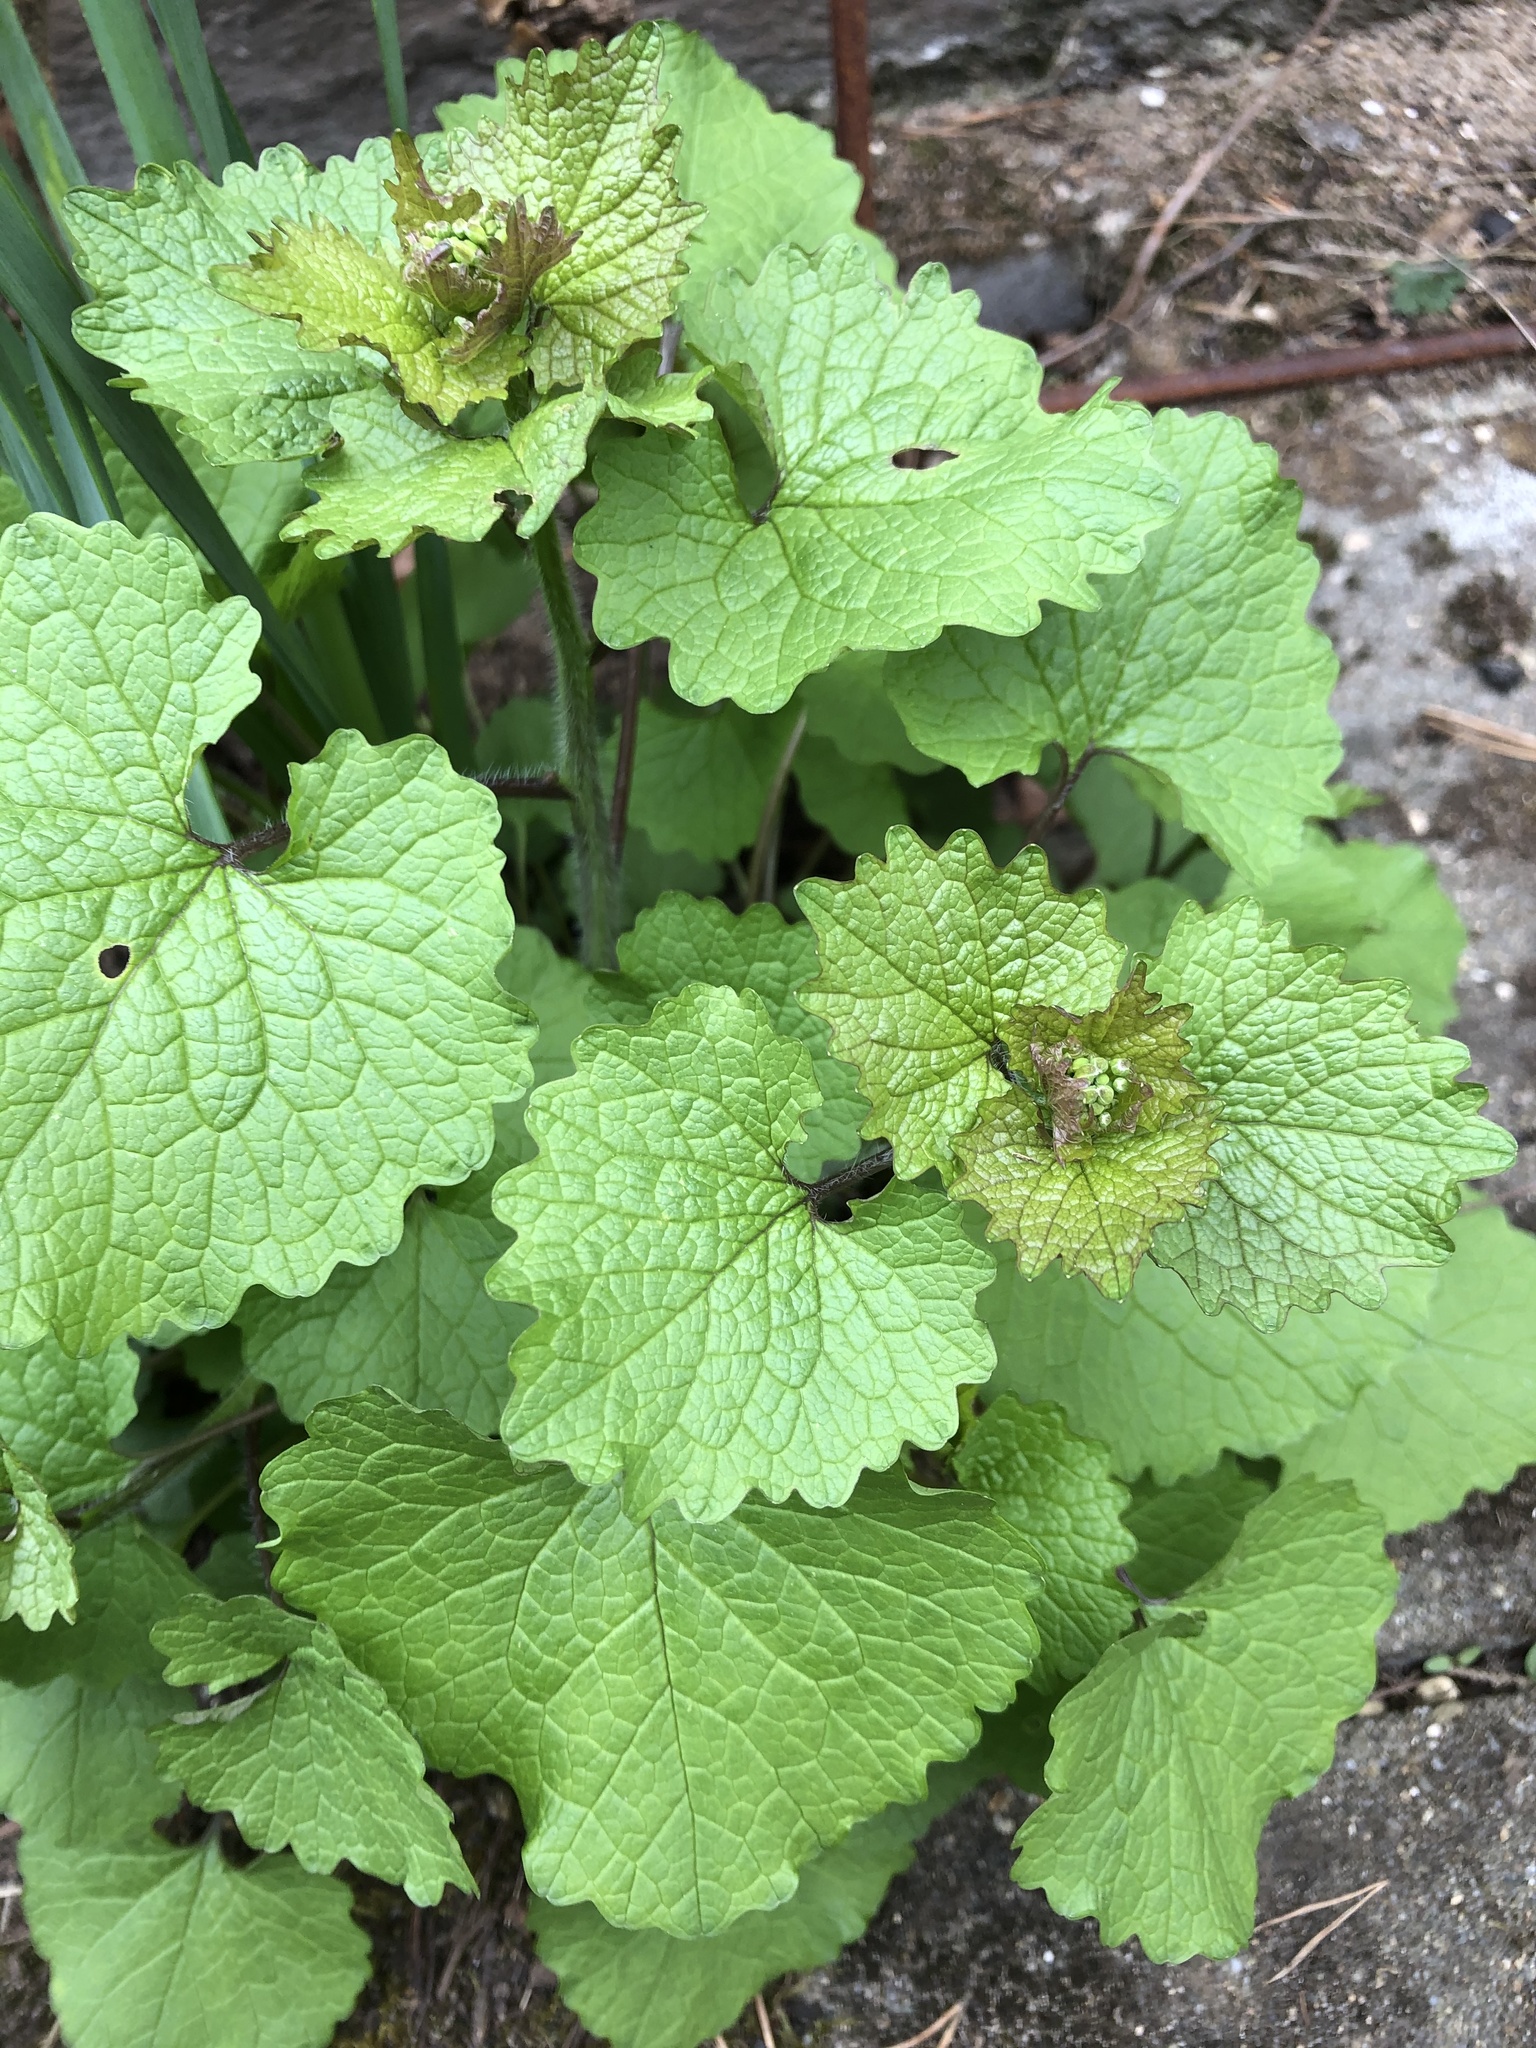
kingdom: Plantae
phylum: Tracheophyta
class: Magnoliopsida
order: Brassicales
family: Brassicaceae
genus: Alliaria
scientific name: Alliaria petiolata
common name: Garlic mustard
